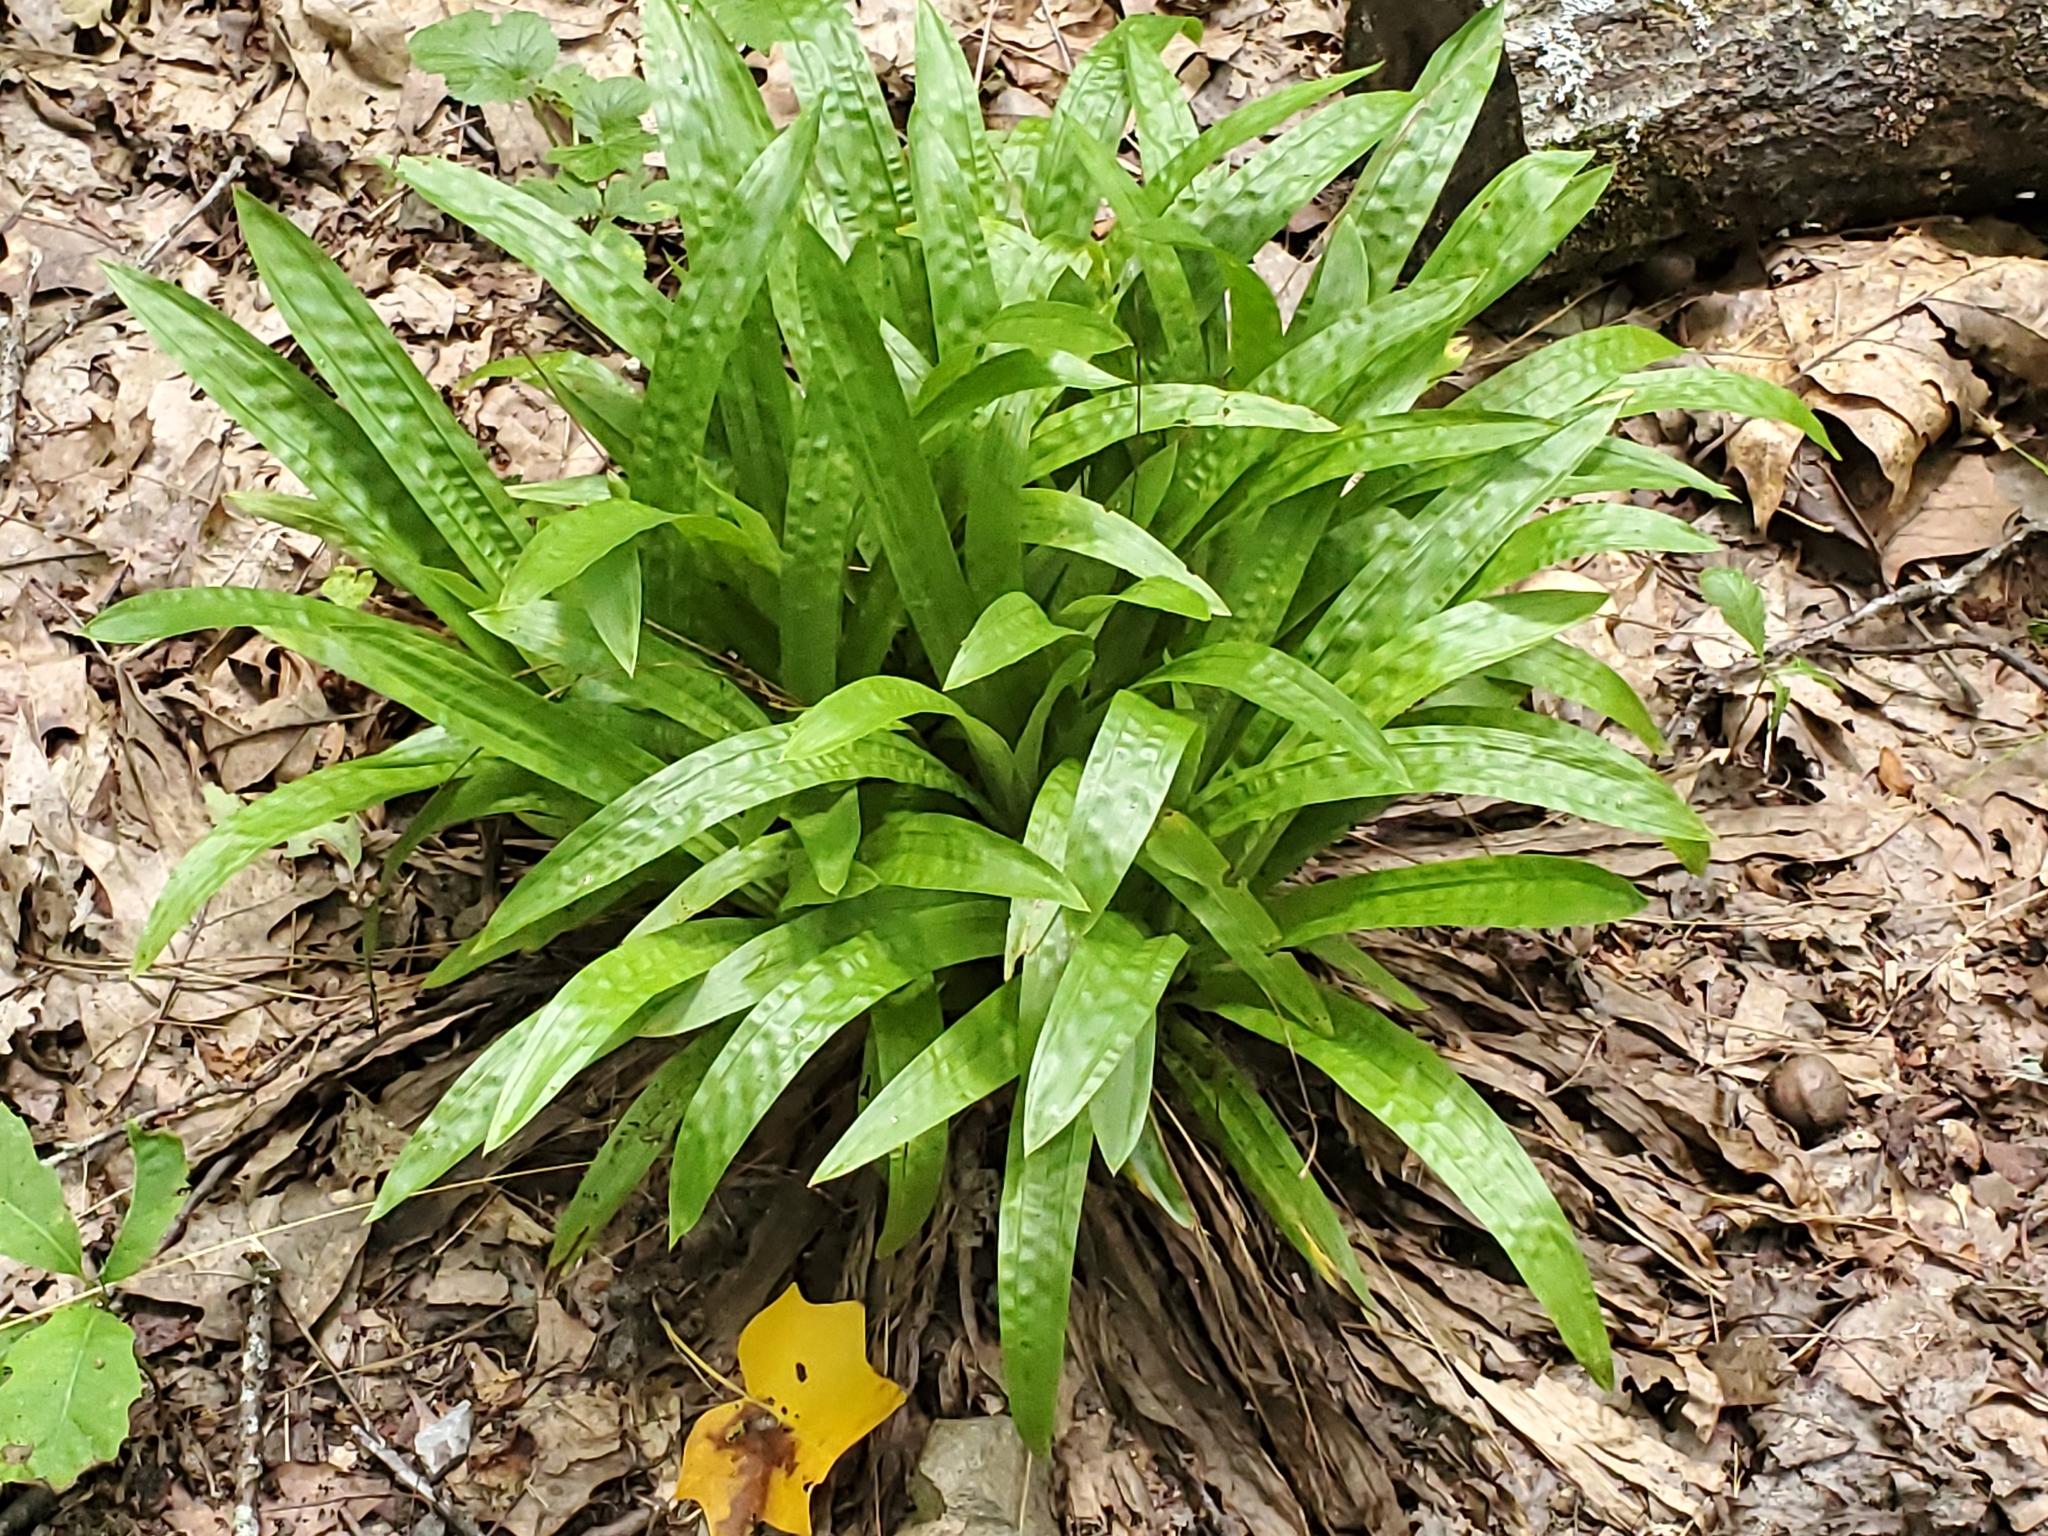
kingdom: Plantae
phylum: Tracheophyta
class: Liliopsida
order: Poales
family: Cyperaceae
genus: Carex
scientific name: Carex plantaginea
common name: Plantain-leaved sedge
